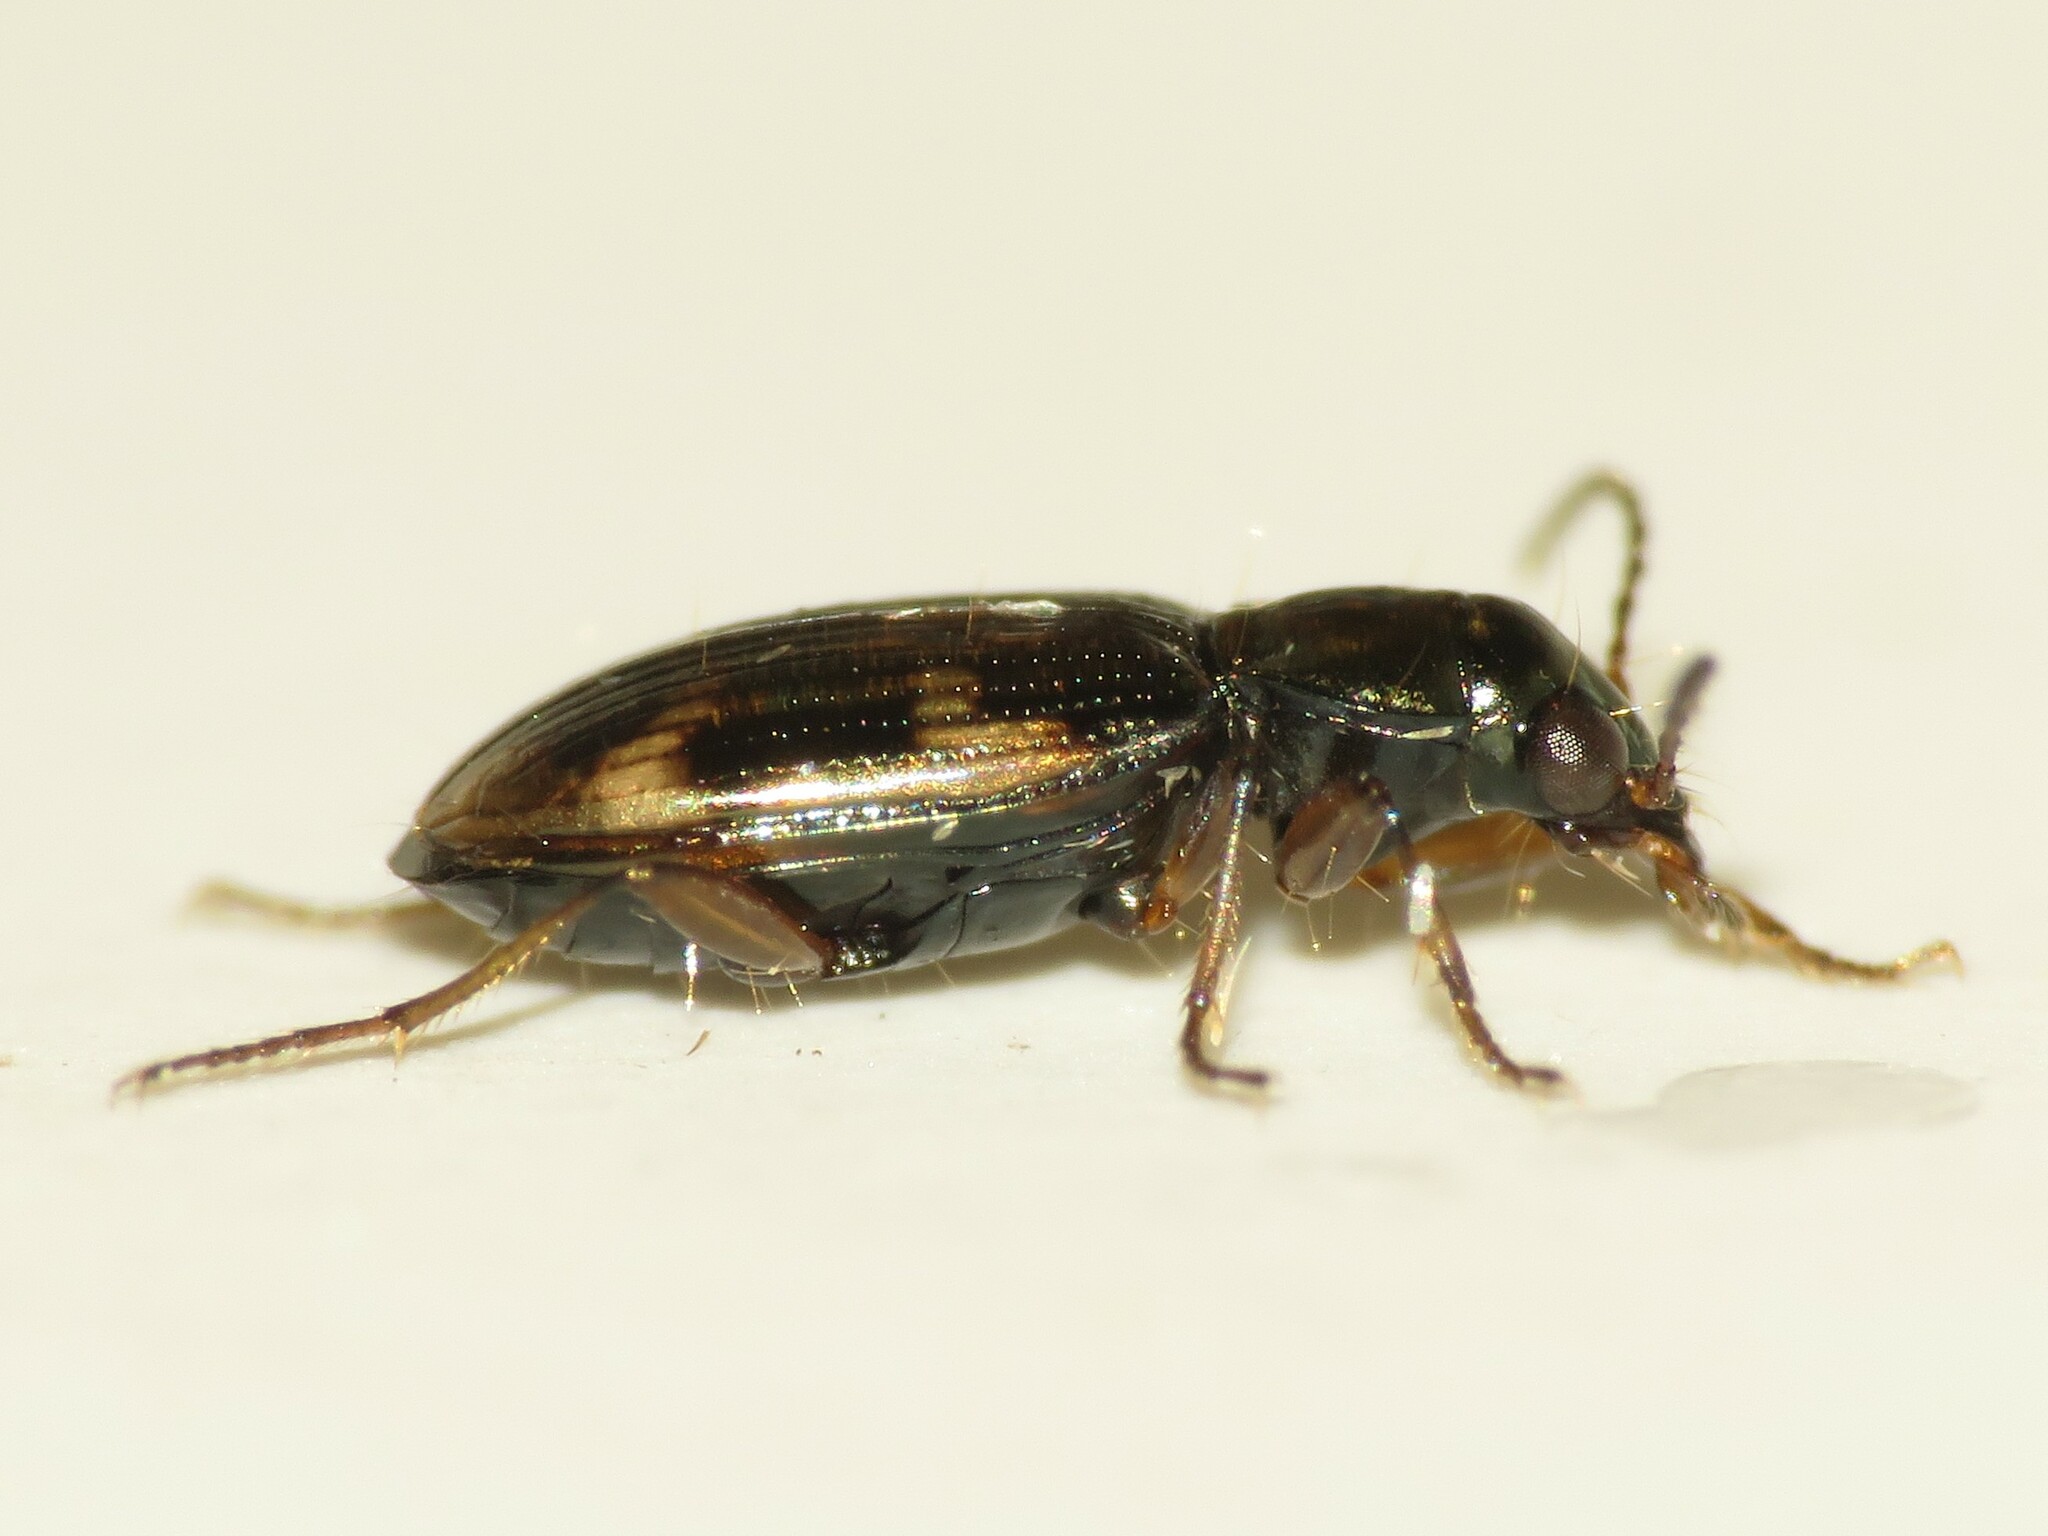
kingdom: Animalia
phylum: Arthropoda
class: Insecta
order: Coleoptera
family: Carabidae
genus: Bembidion
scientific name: Bembidion patruele
